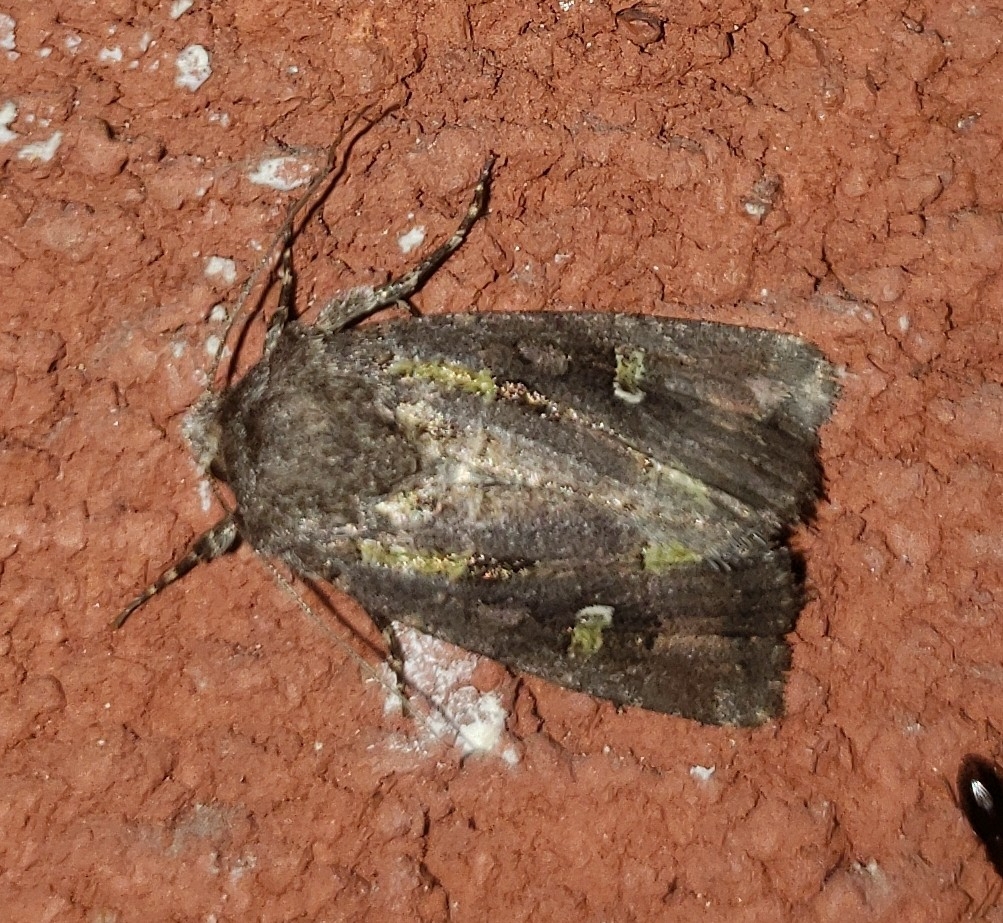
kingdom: Animalia
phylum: Arthropoda
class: Insecta
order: Lepidoptera
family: Noctuidae
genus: Lacinipolia
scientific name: Lacinipolia renigera
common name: Kidney-spotted minor
